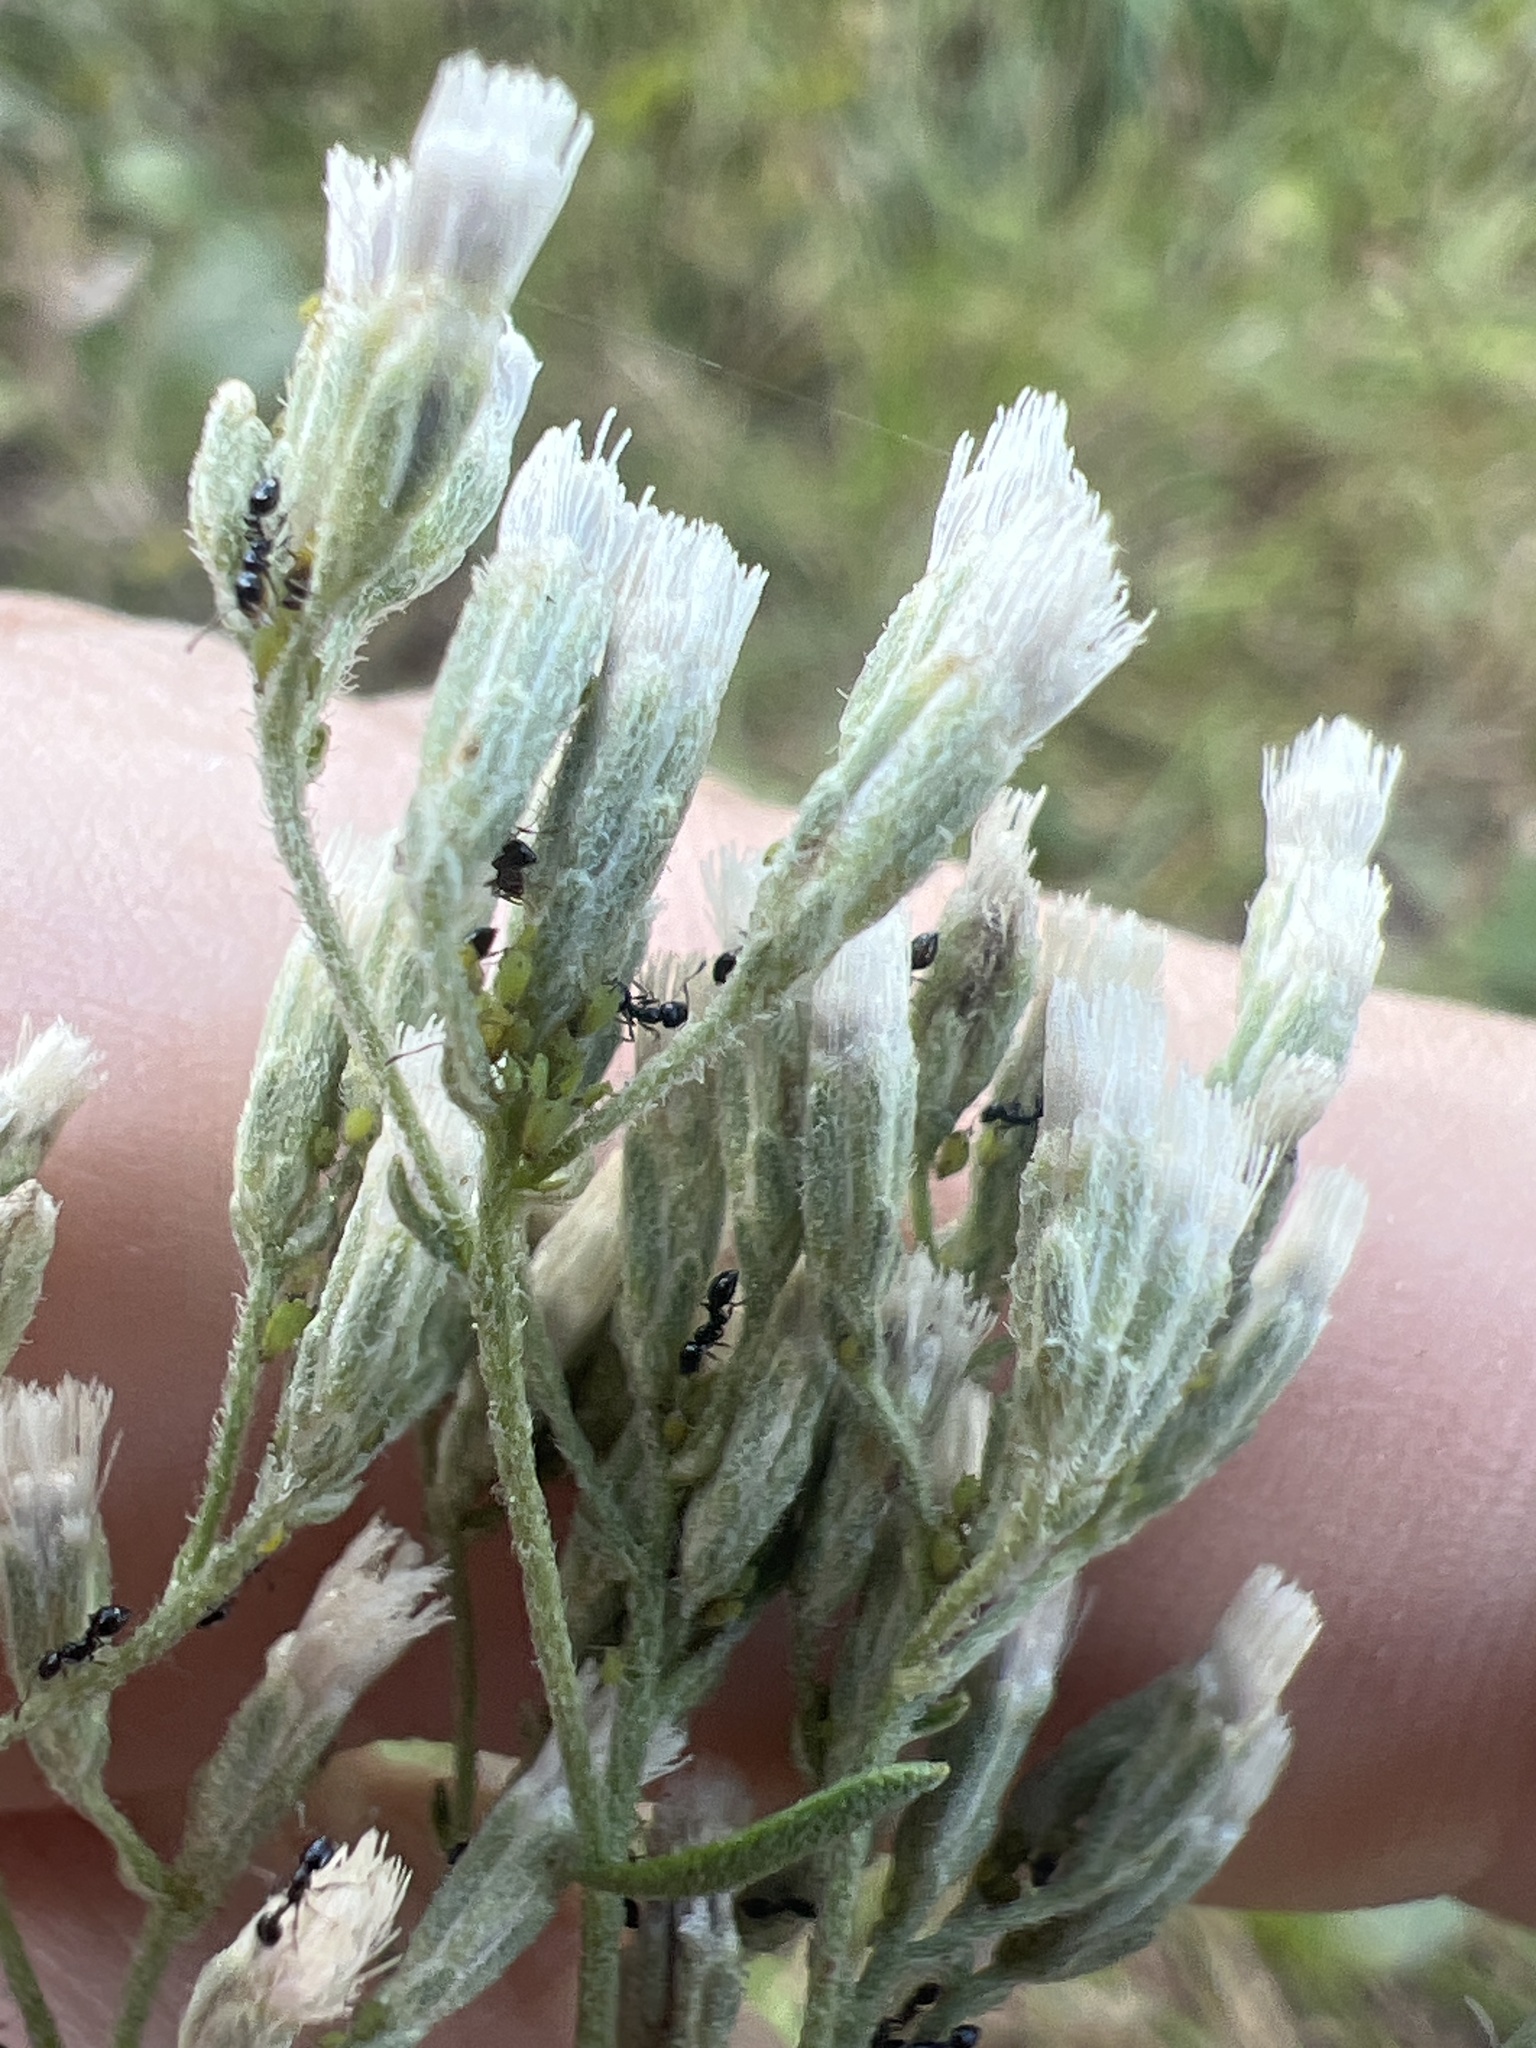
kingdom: Plantae
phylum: Tracheophyta
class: Magnoliopsida
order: Asterales
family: Asteraceae
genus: Eupatorium
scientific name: Eupatorium hyssopifolium
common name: Hyssop-leaf thoroughwort
